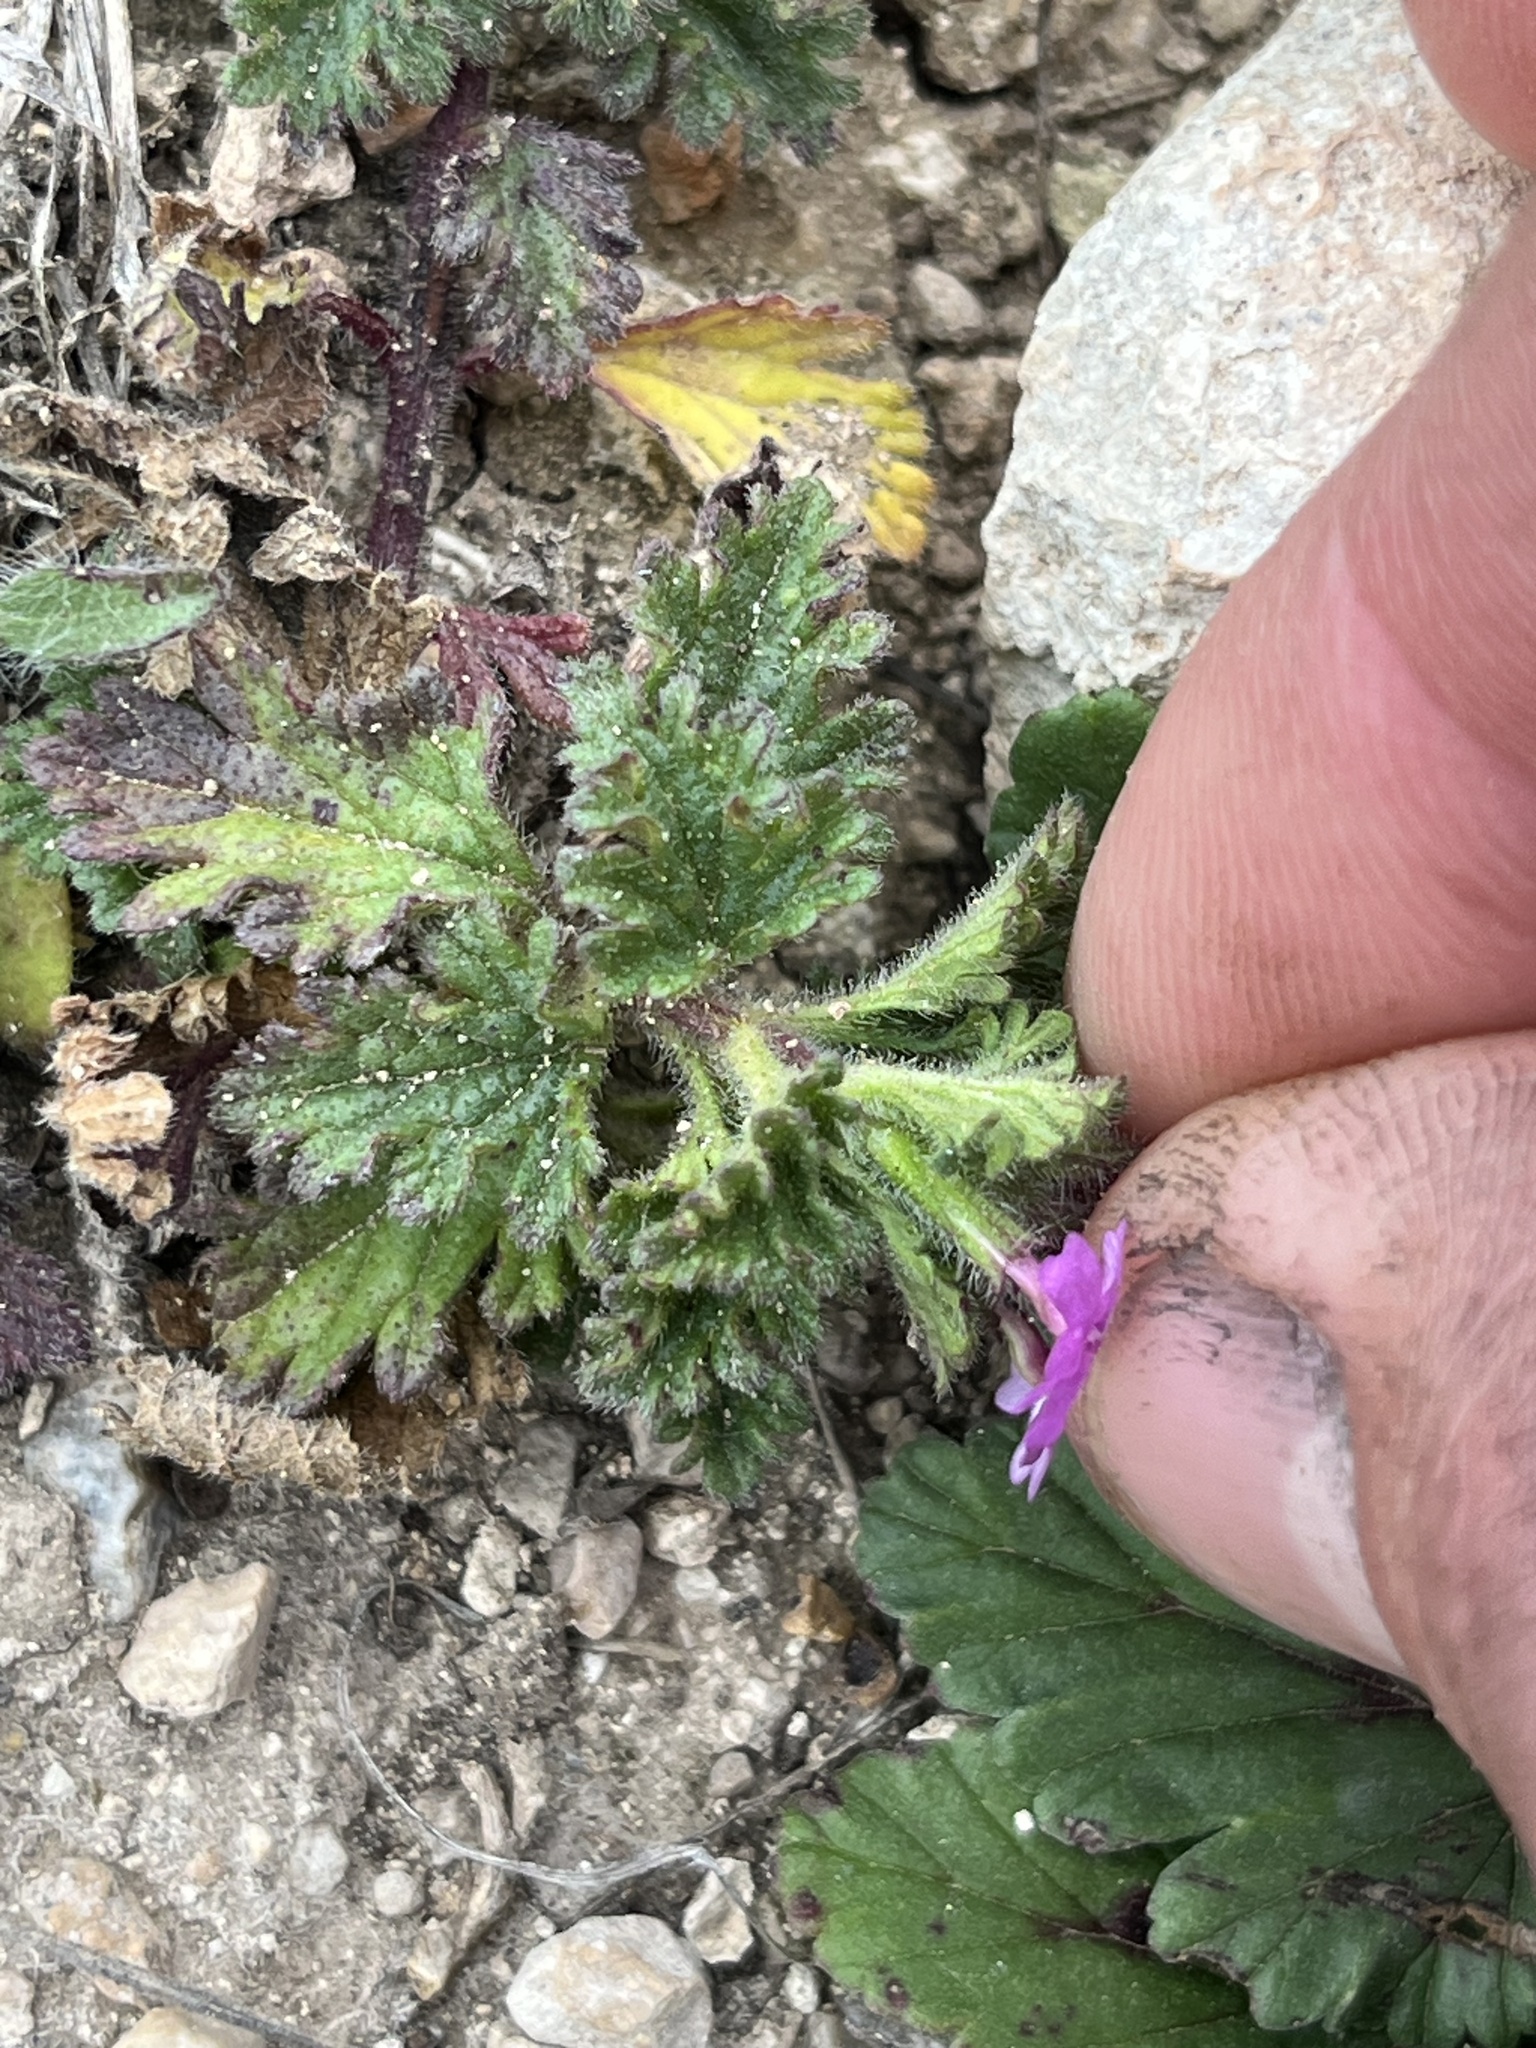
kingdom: Plantae
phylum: Tracheophyta
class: Magnoliopsida
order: Lamiales
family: Verbenaceae
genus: Verbena
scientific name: Verbena pumila
